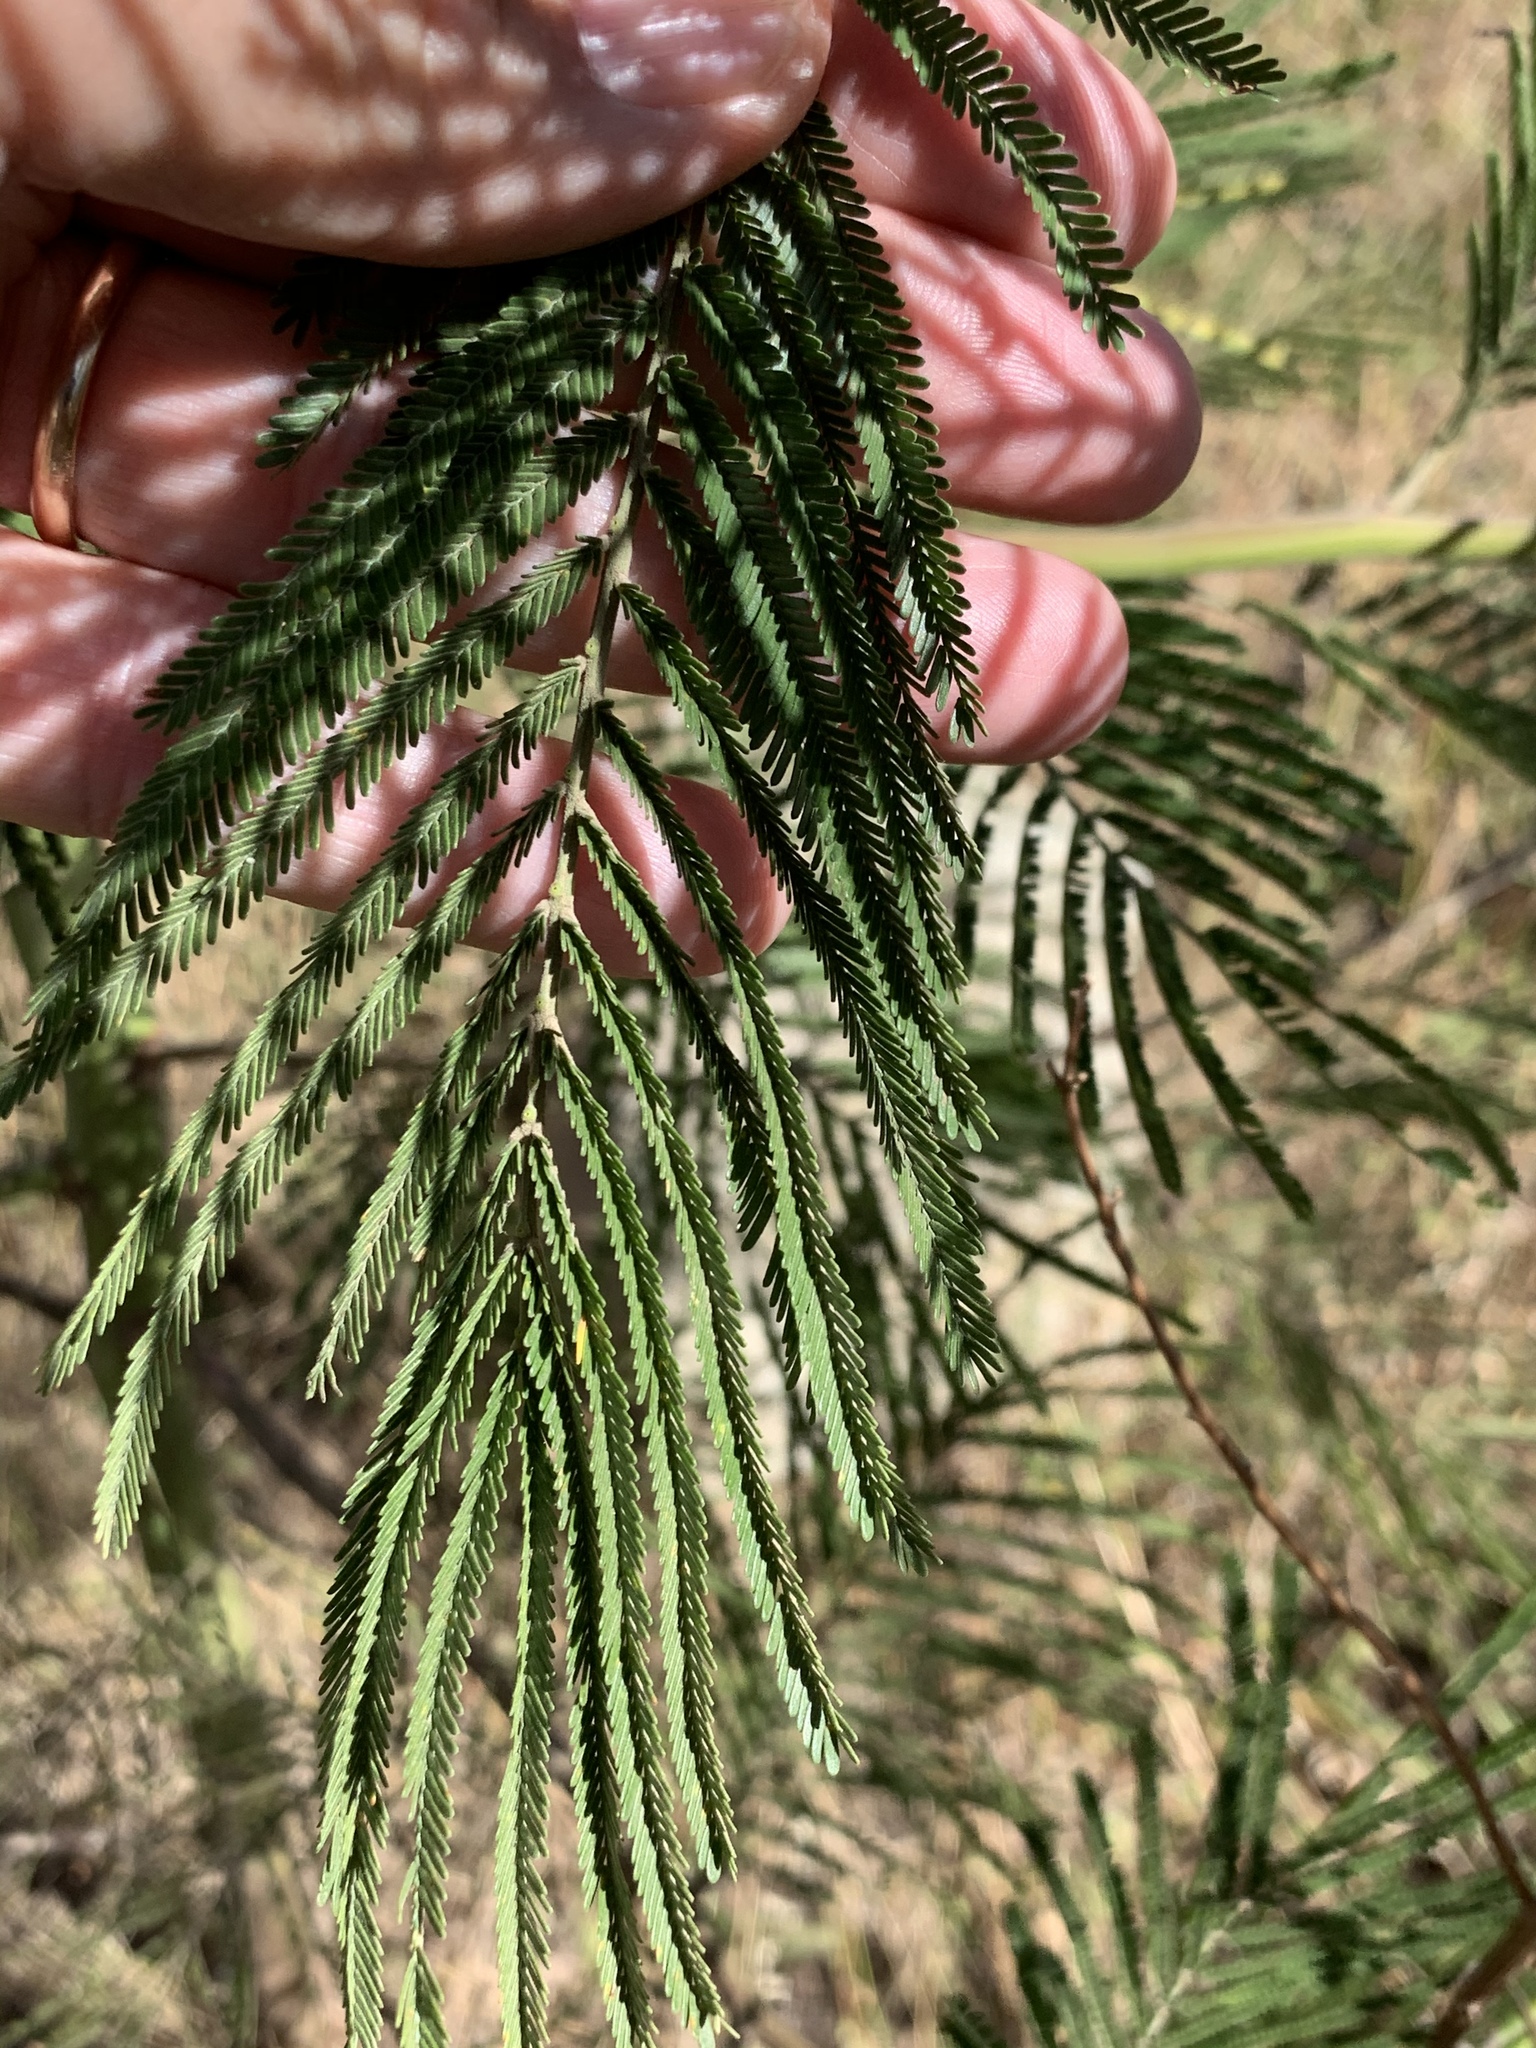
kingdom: Plantae
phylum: Tracheophyta
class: Magnoliopsida
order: Fabales
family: Fabaceae
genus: Acacia
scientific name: Acacia mearnsii
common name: Black wattle
